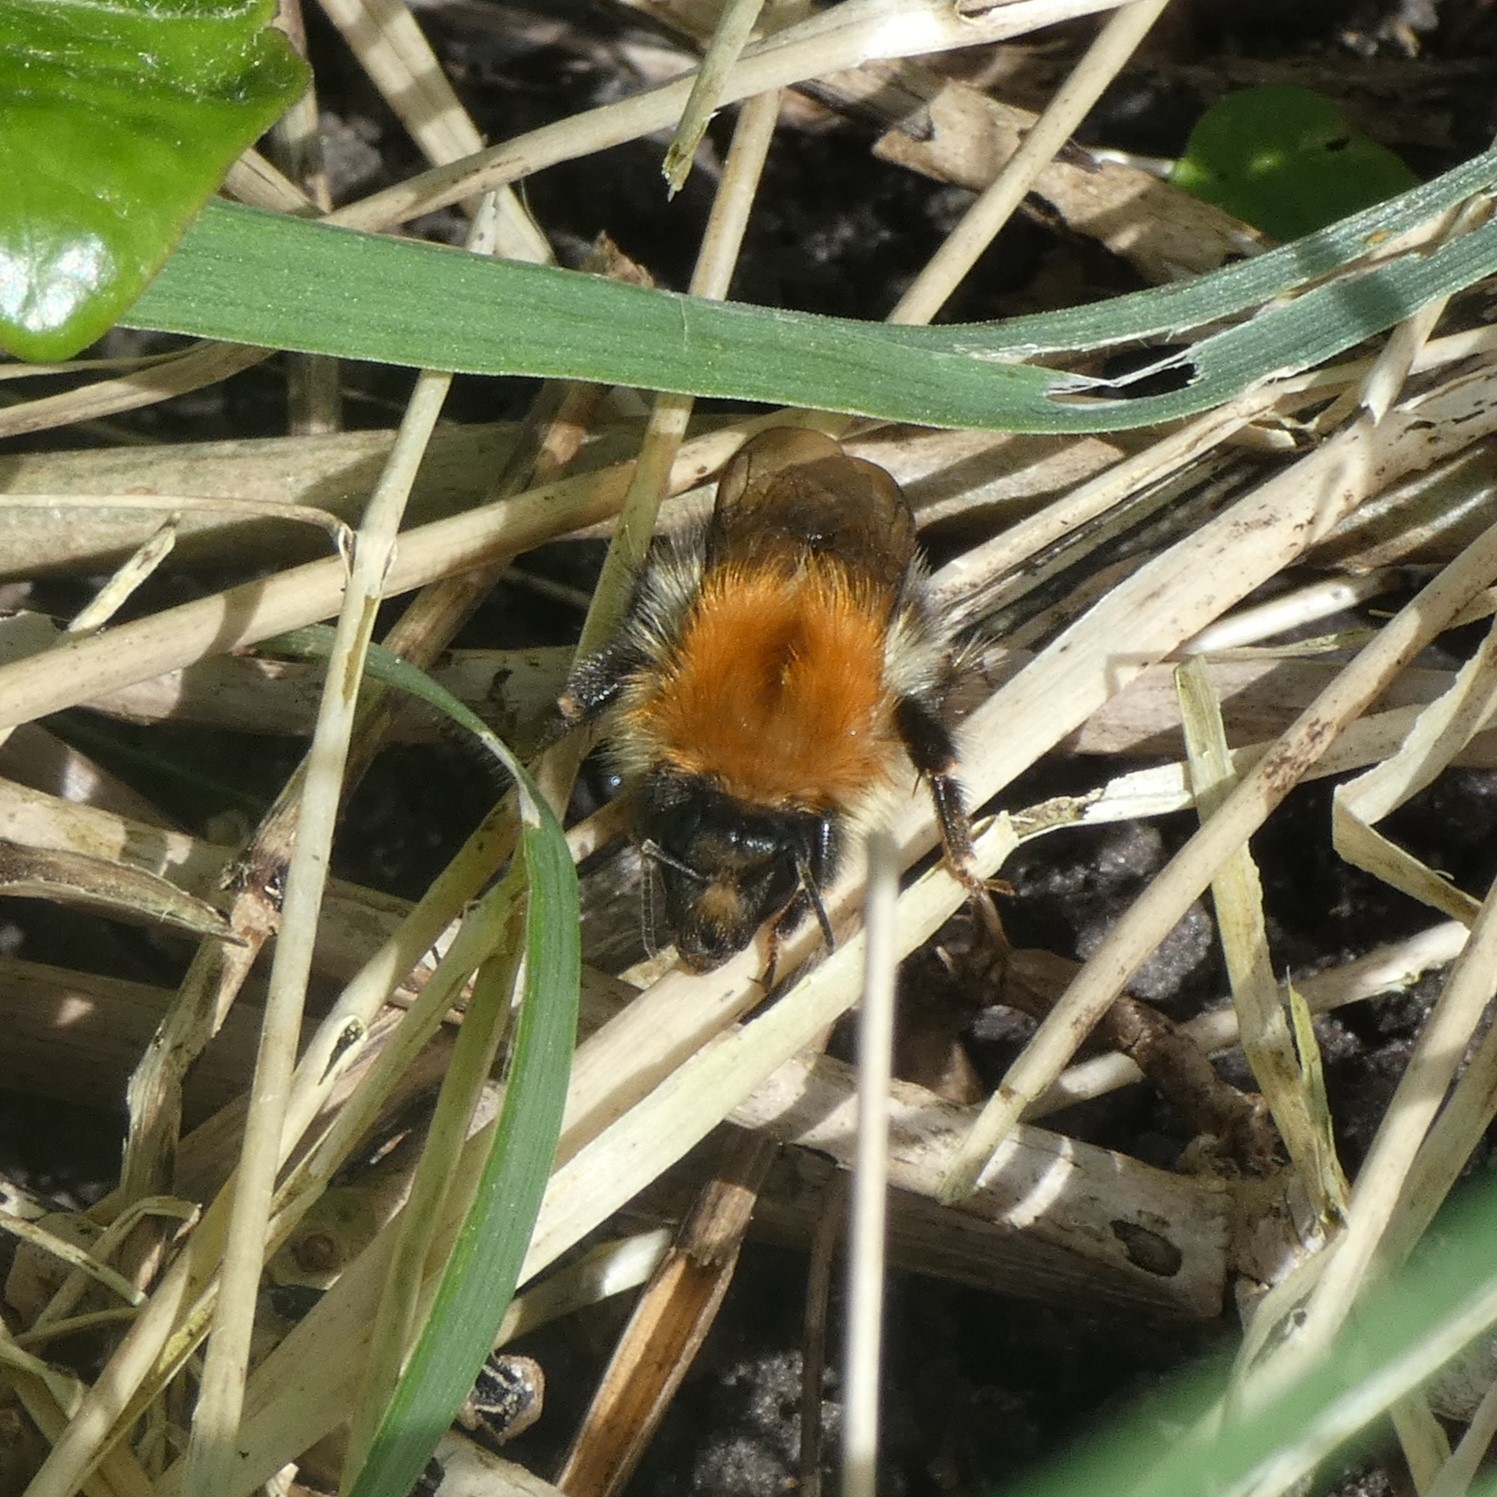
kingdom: Animalia
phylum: Arthropoda
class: Insecta
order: Hymenoptera
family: Apidae
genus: Bombus
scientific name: Bombus pascuorum
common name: Common carder bee
